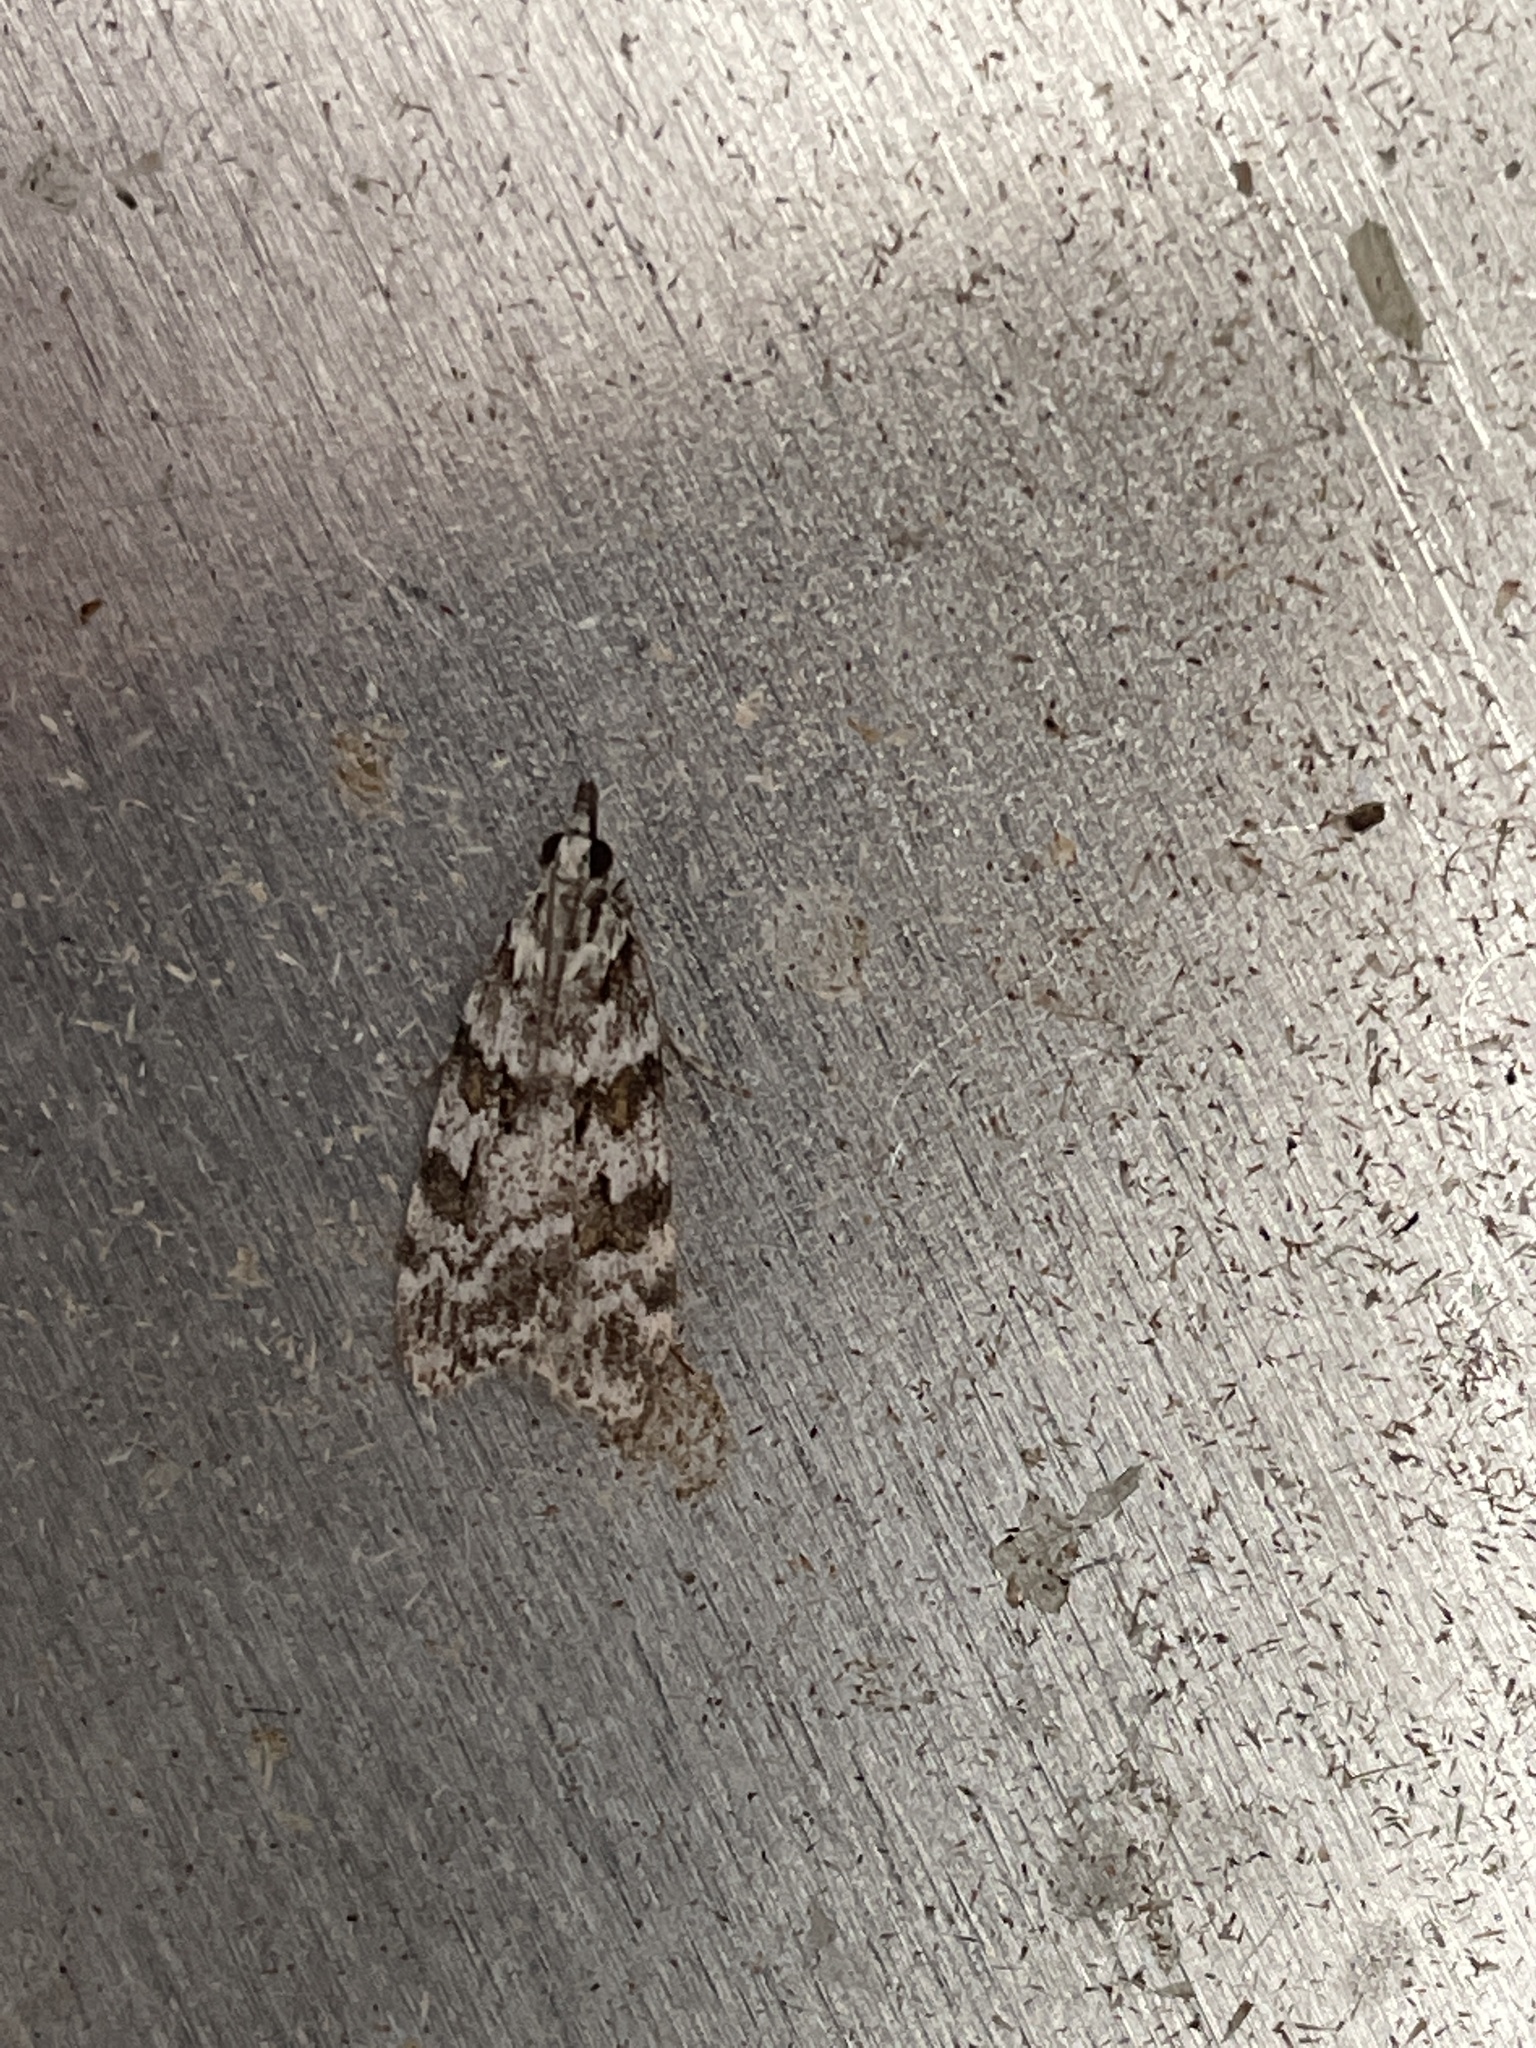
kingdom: Animalia
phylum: Arthropoda
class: Insecta
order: Lepidoptera
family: Crambidae
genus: Scoparia
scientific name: Scoparia pyralella
